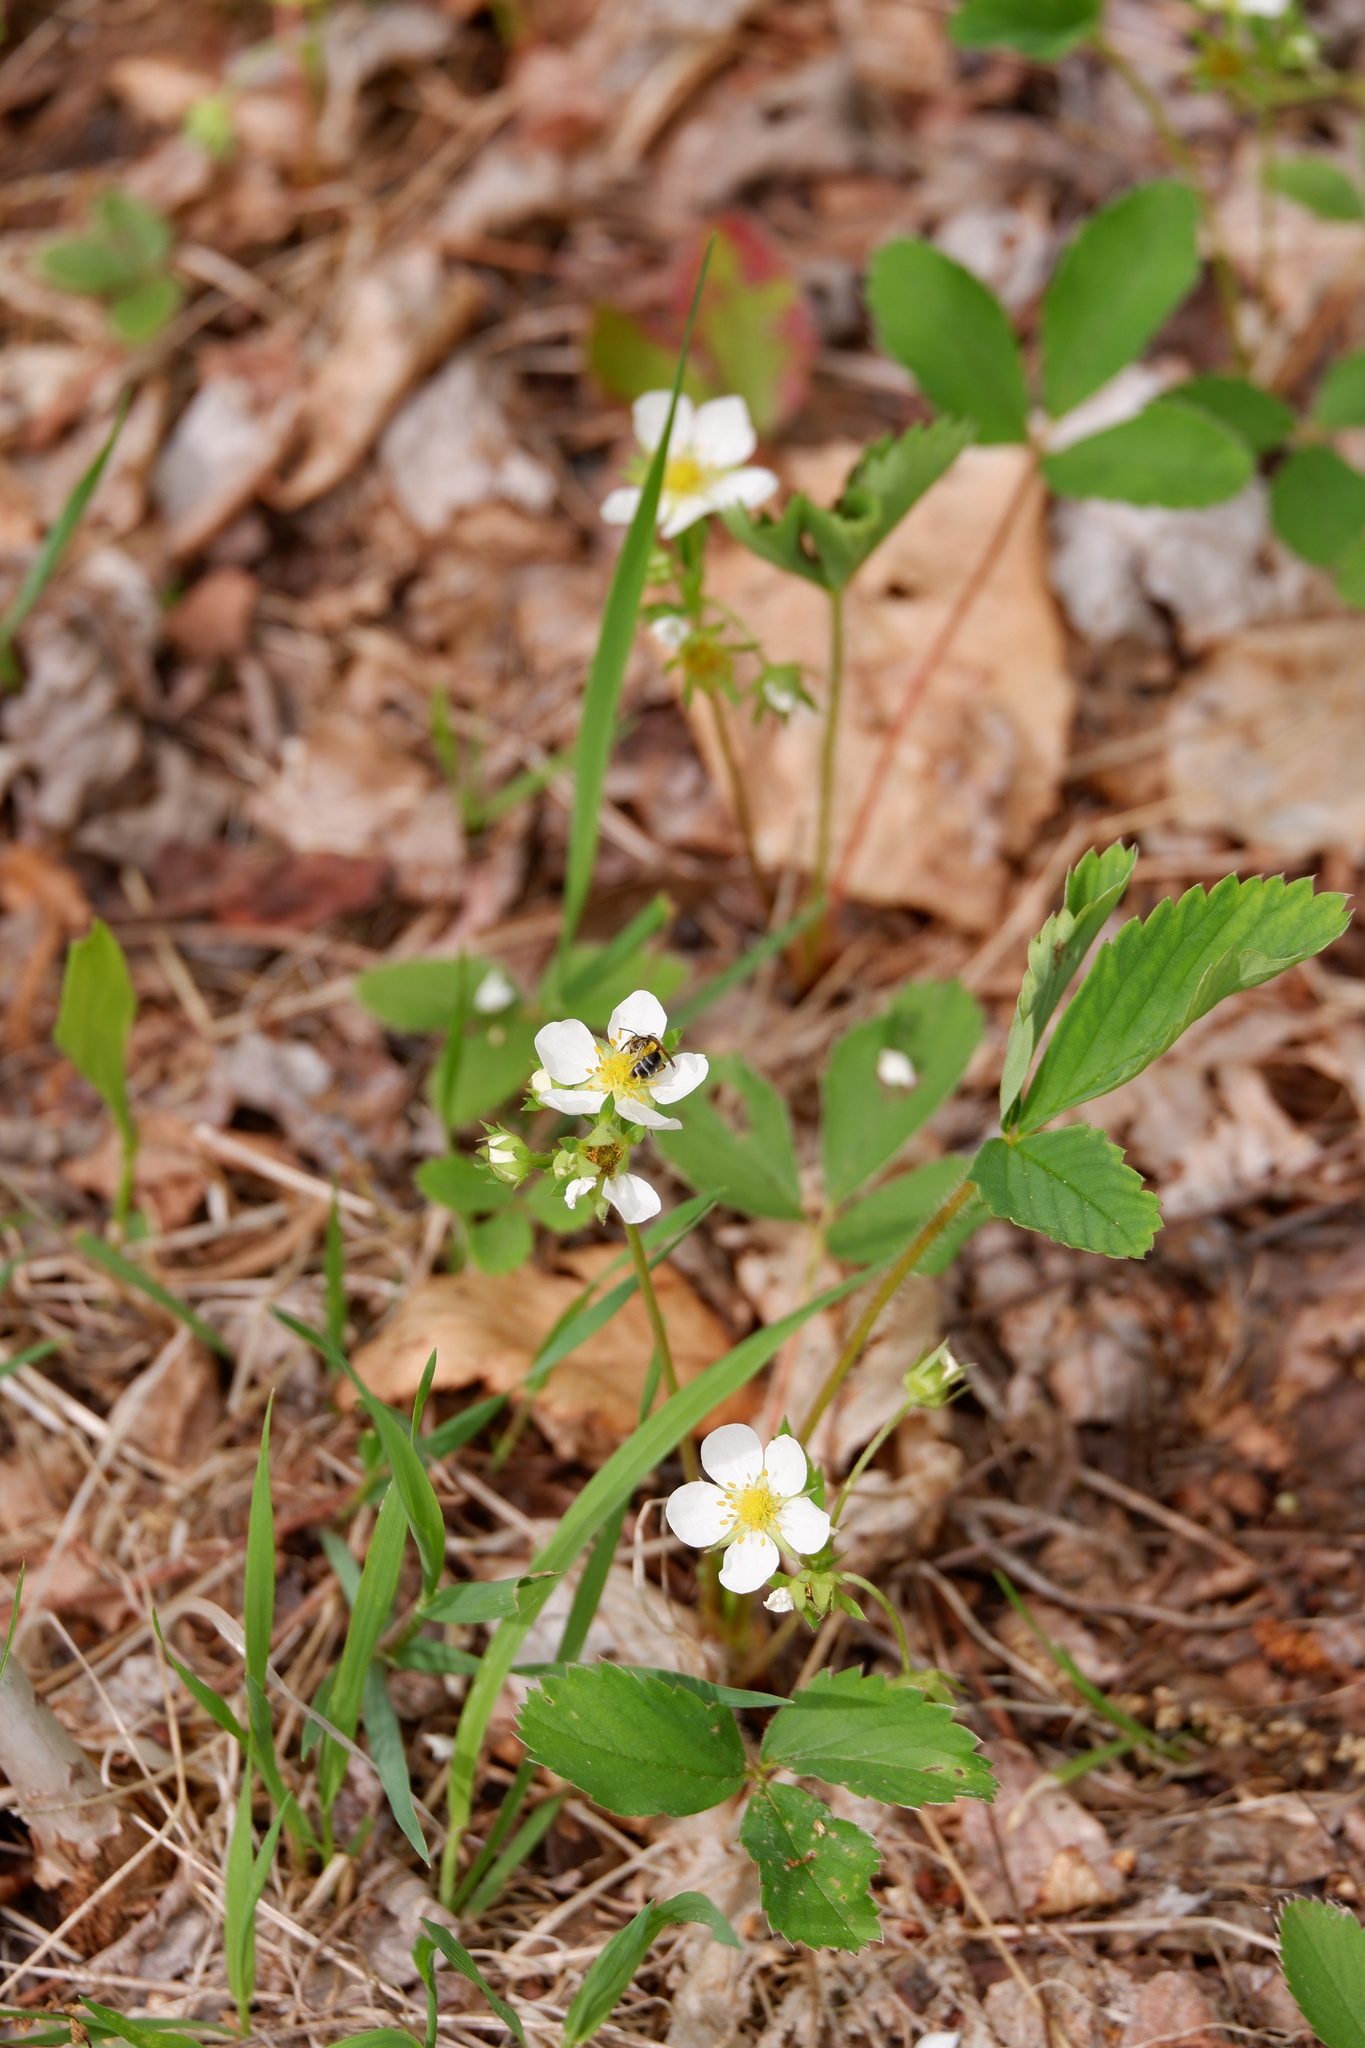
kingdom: Plantae
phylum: Tracheophyta
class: Magnoliopsida
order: Rosales
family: Rosaceae
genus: Fragaria
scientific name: Fragaria virginiana
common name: Thickleaved wild strawberry
